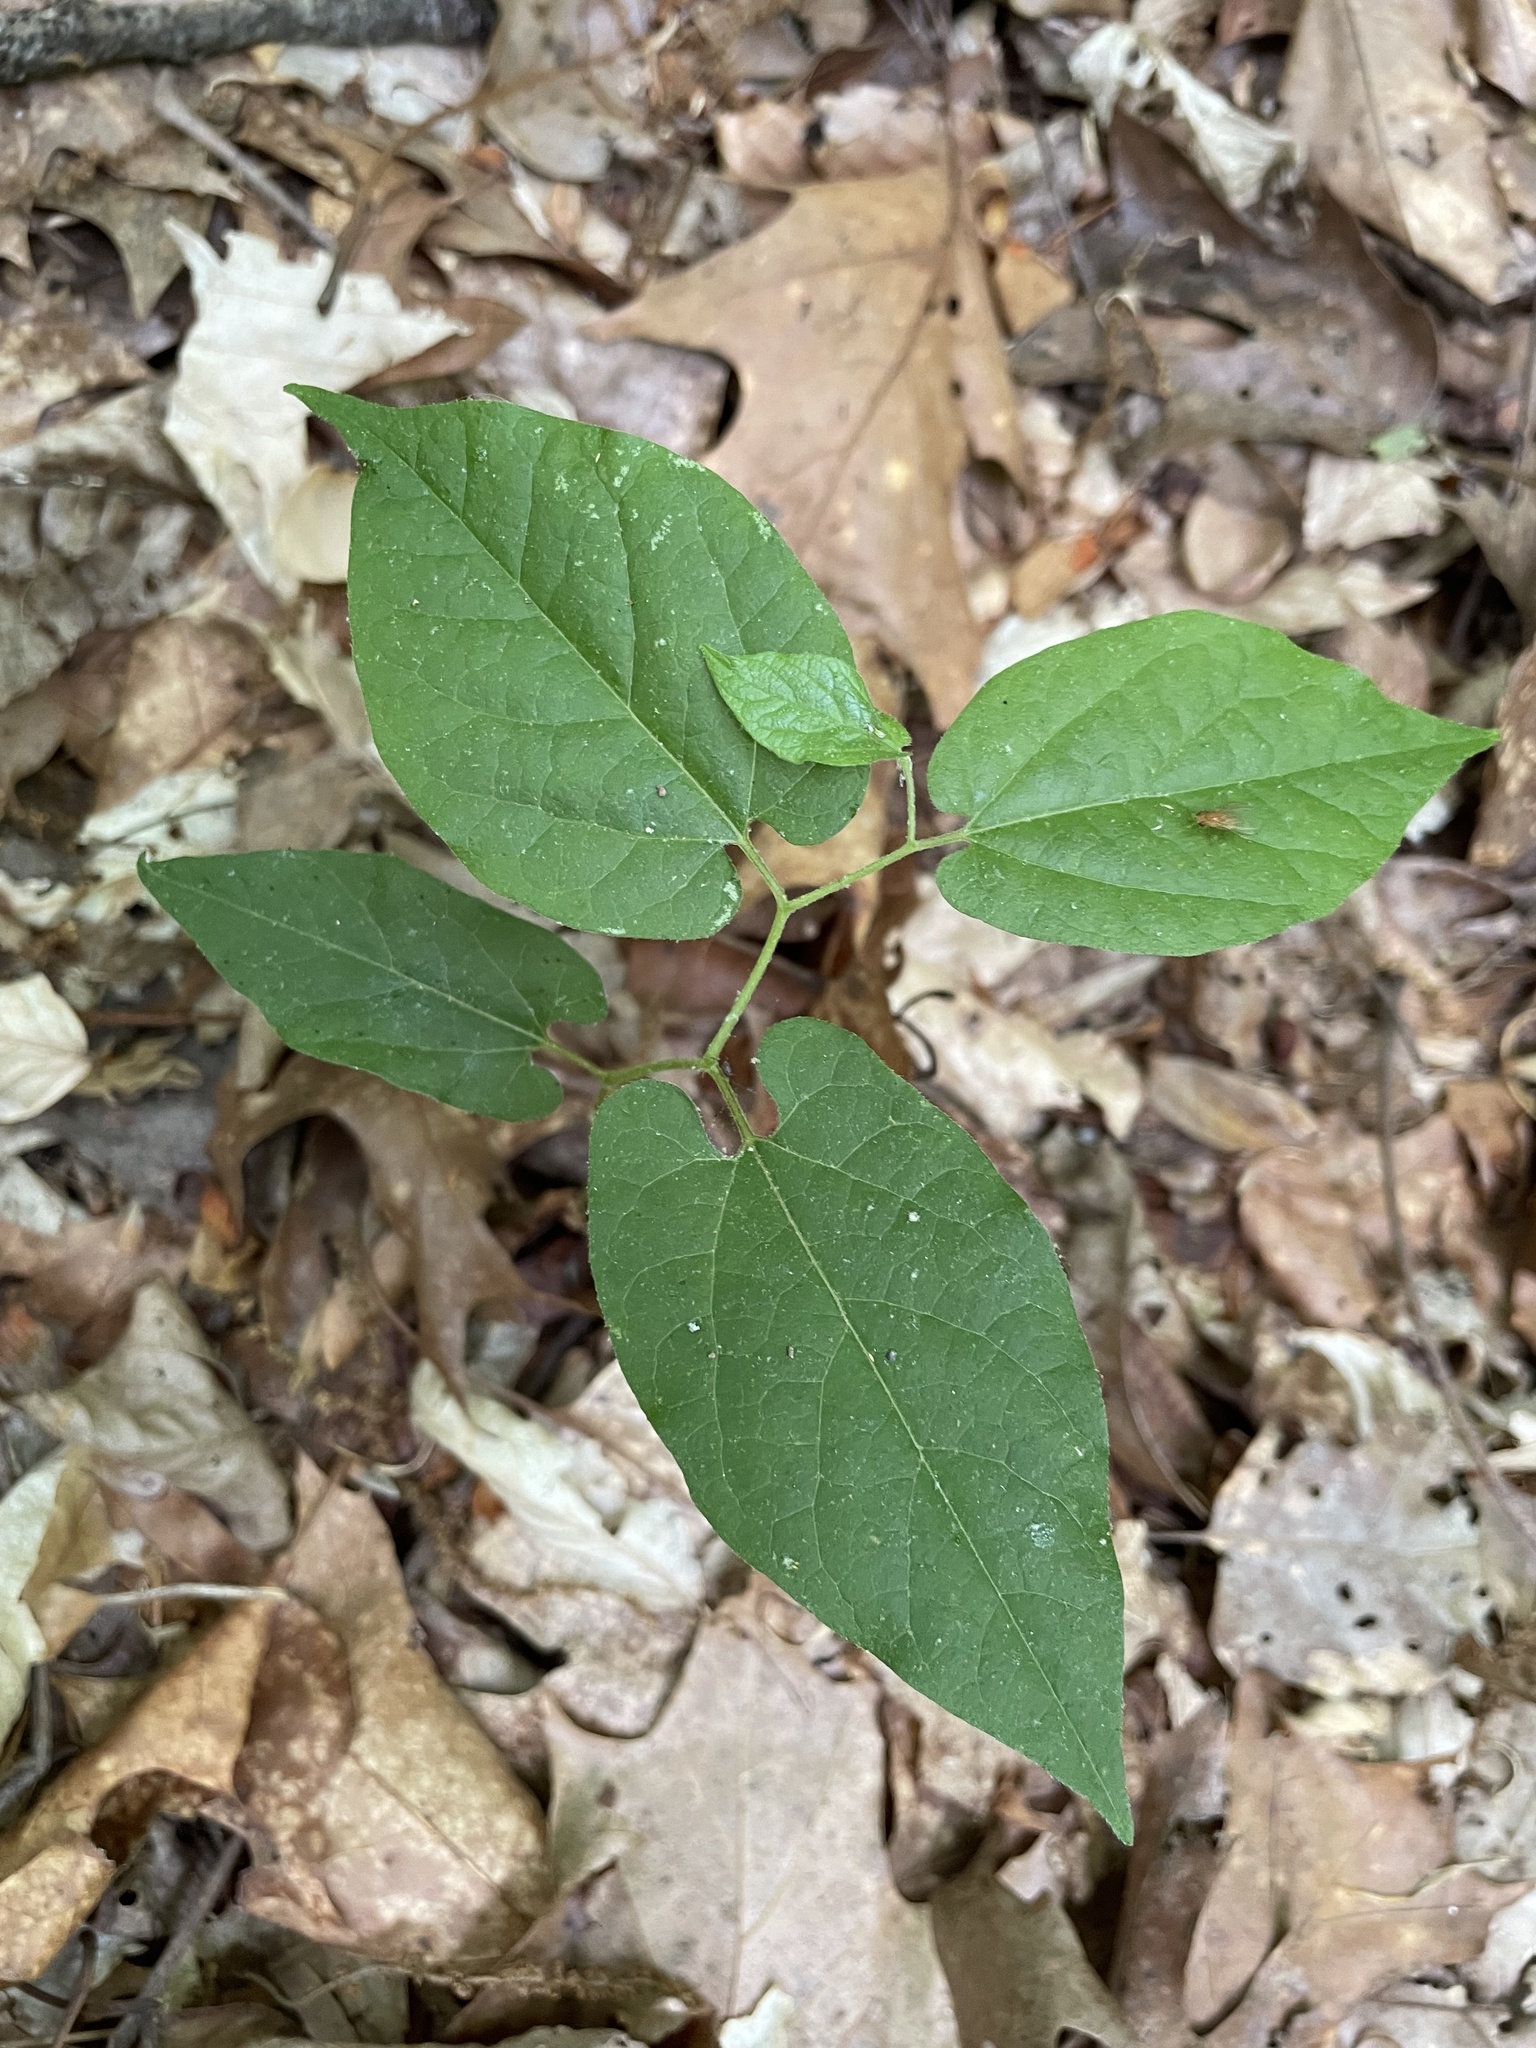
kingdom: Plantae
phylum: Tracheophyta
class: Magnoliopsida
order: Piperales
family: Aristolochiaceae
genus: Endodeca
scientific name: Endodeca serpentaria
